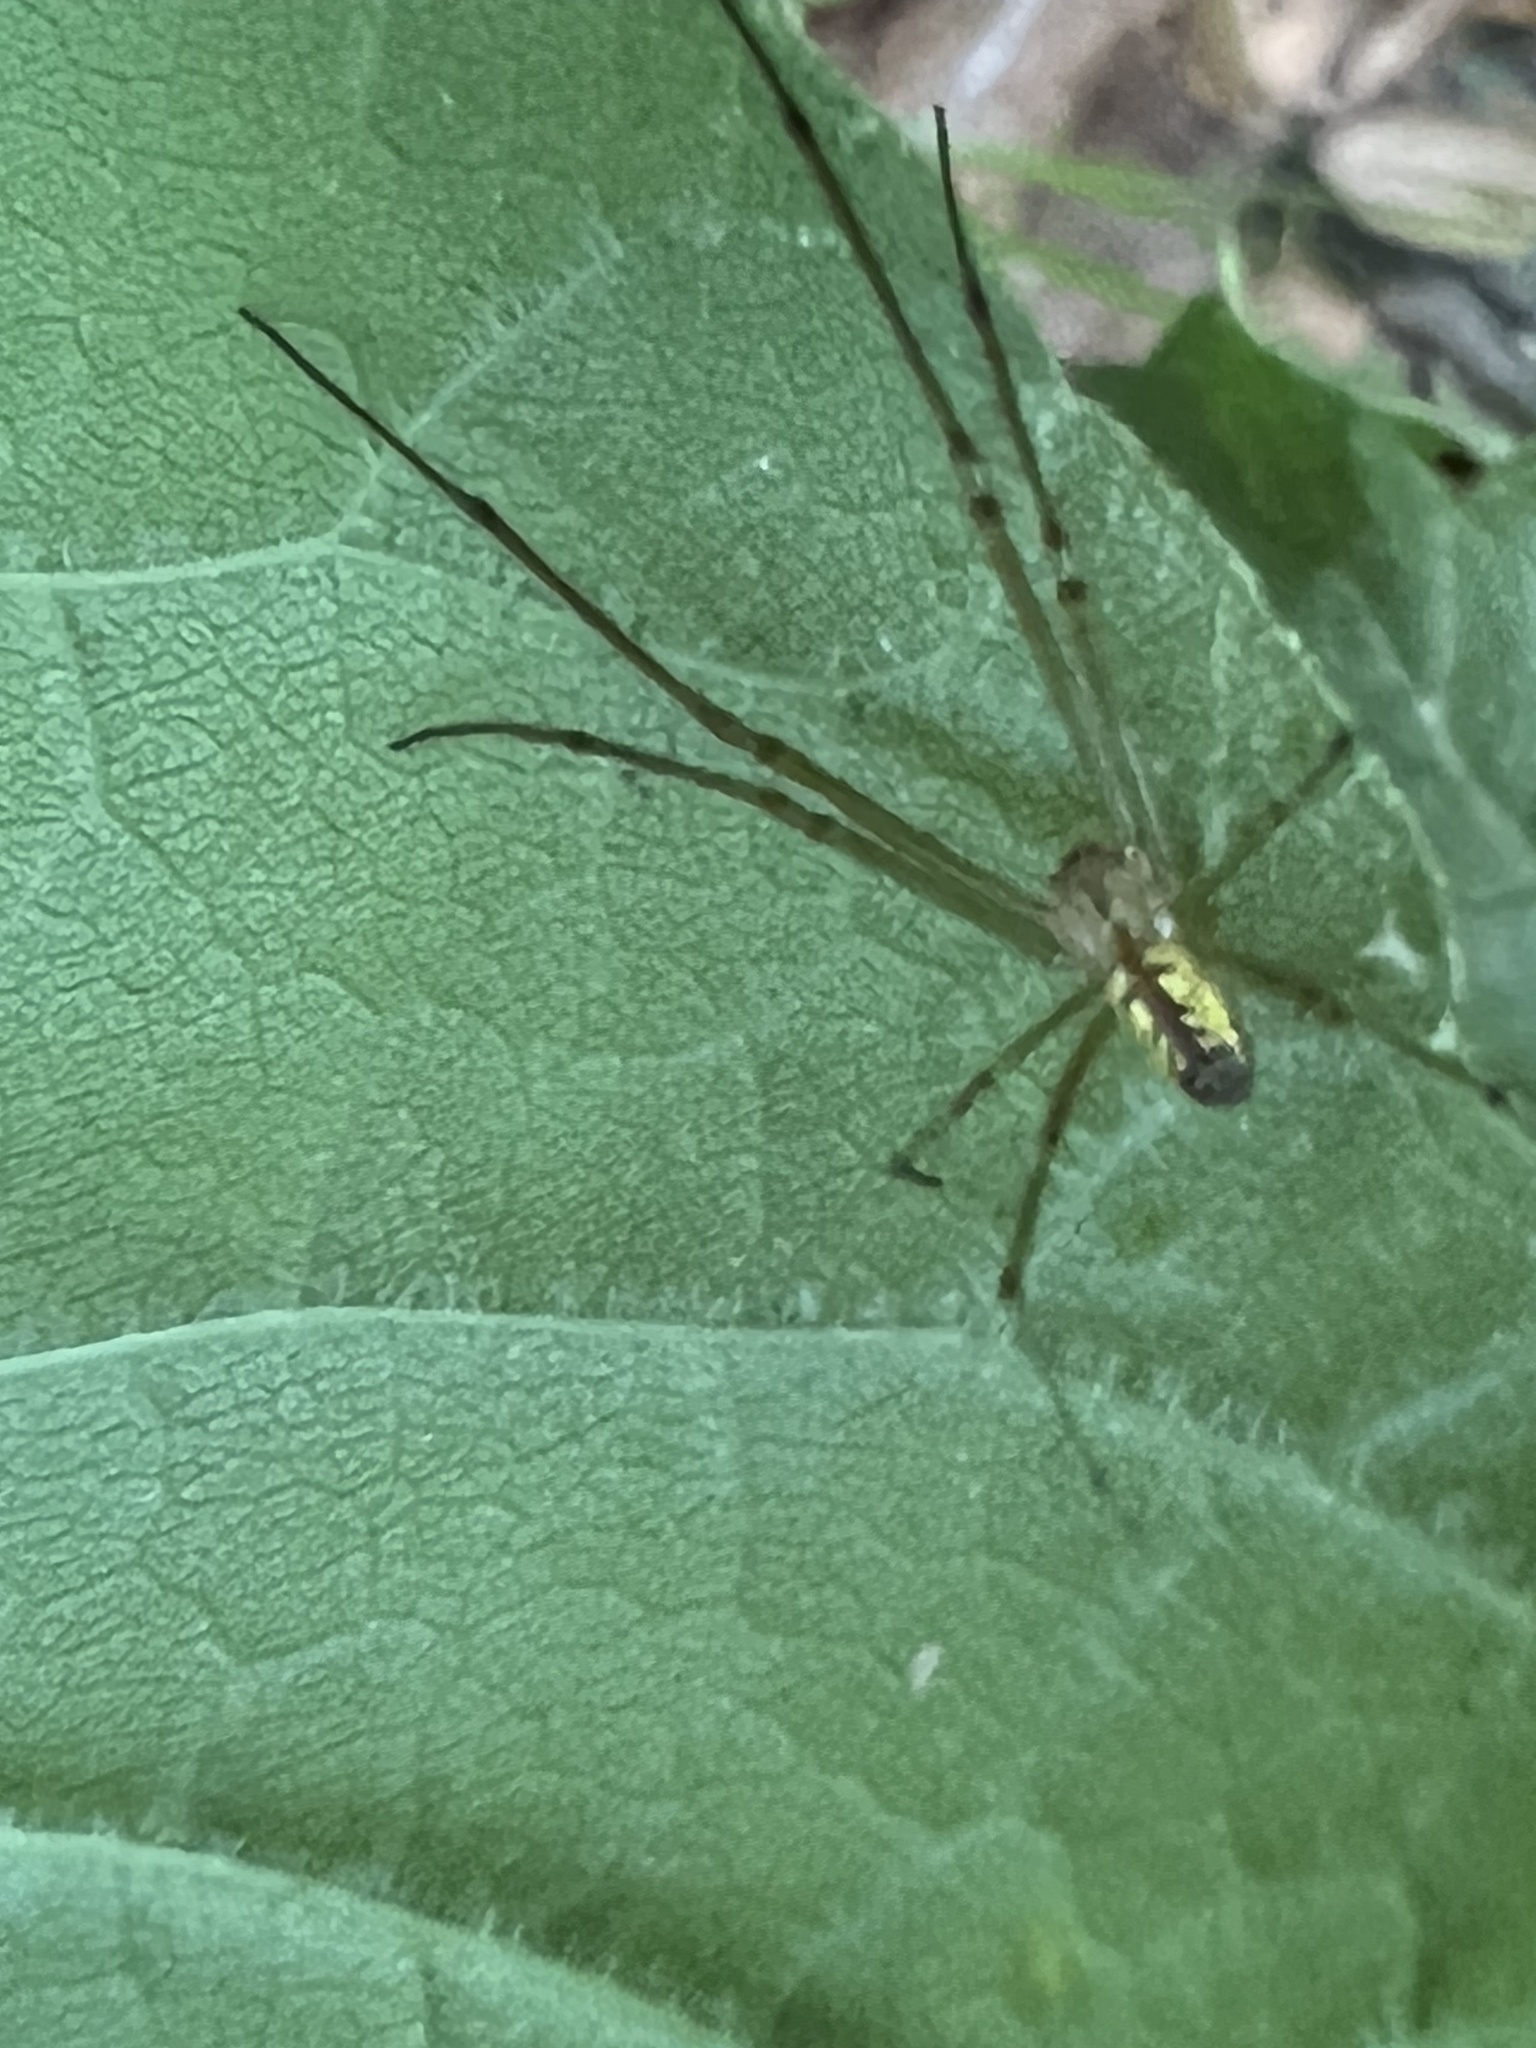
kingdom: Animalia
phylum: Arthropoda
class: Arachnida
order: Araneae
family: Tetragnathidae
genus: Leucauge
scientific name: Leucauge venusta
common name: Longjawed orb weavers
